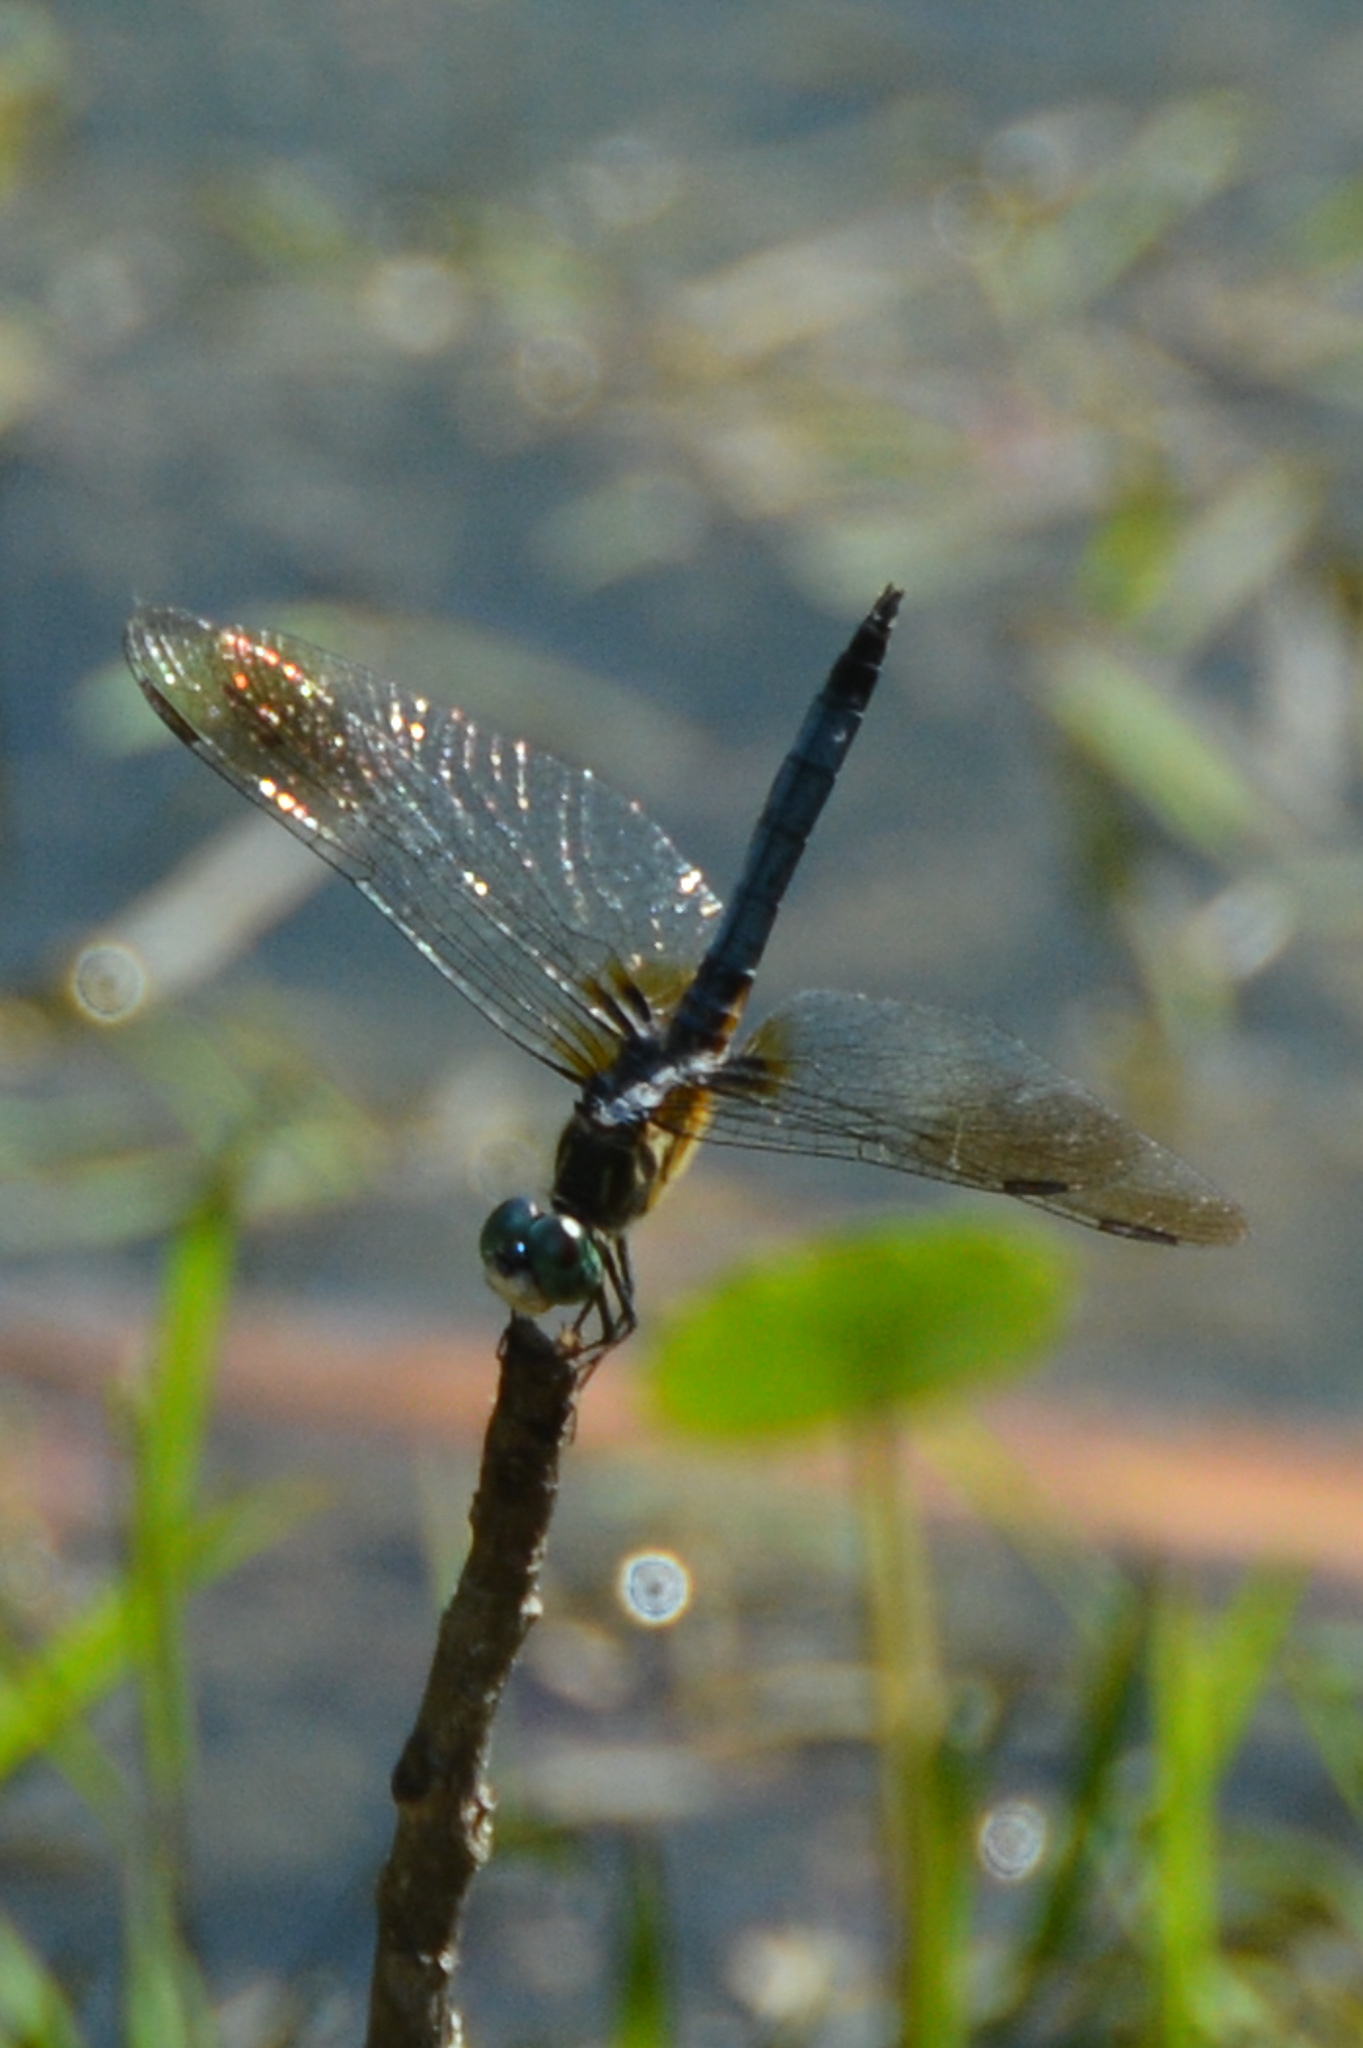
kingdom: Animalia
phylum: Arthropoda
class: Insecta
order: Odonata
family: Libellulidae
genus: Pachydiplax
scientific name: Pachydiplax longipennis
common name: Blue dasher
